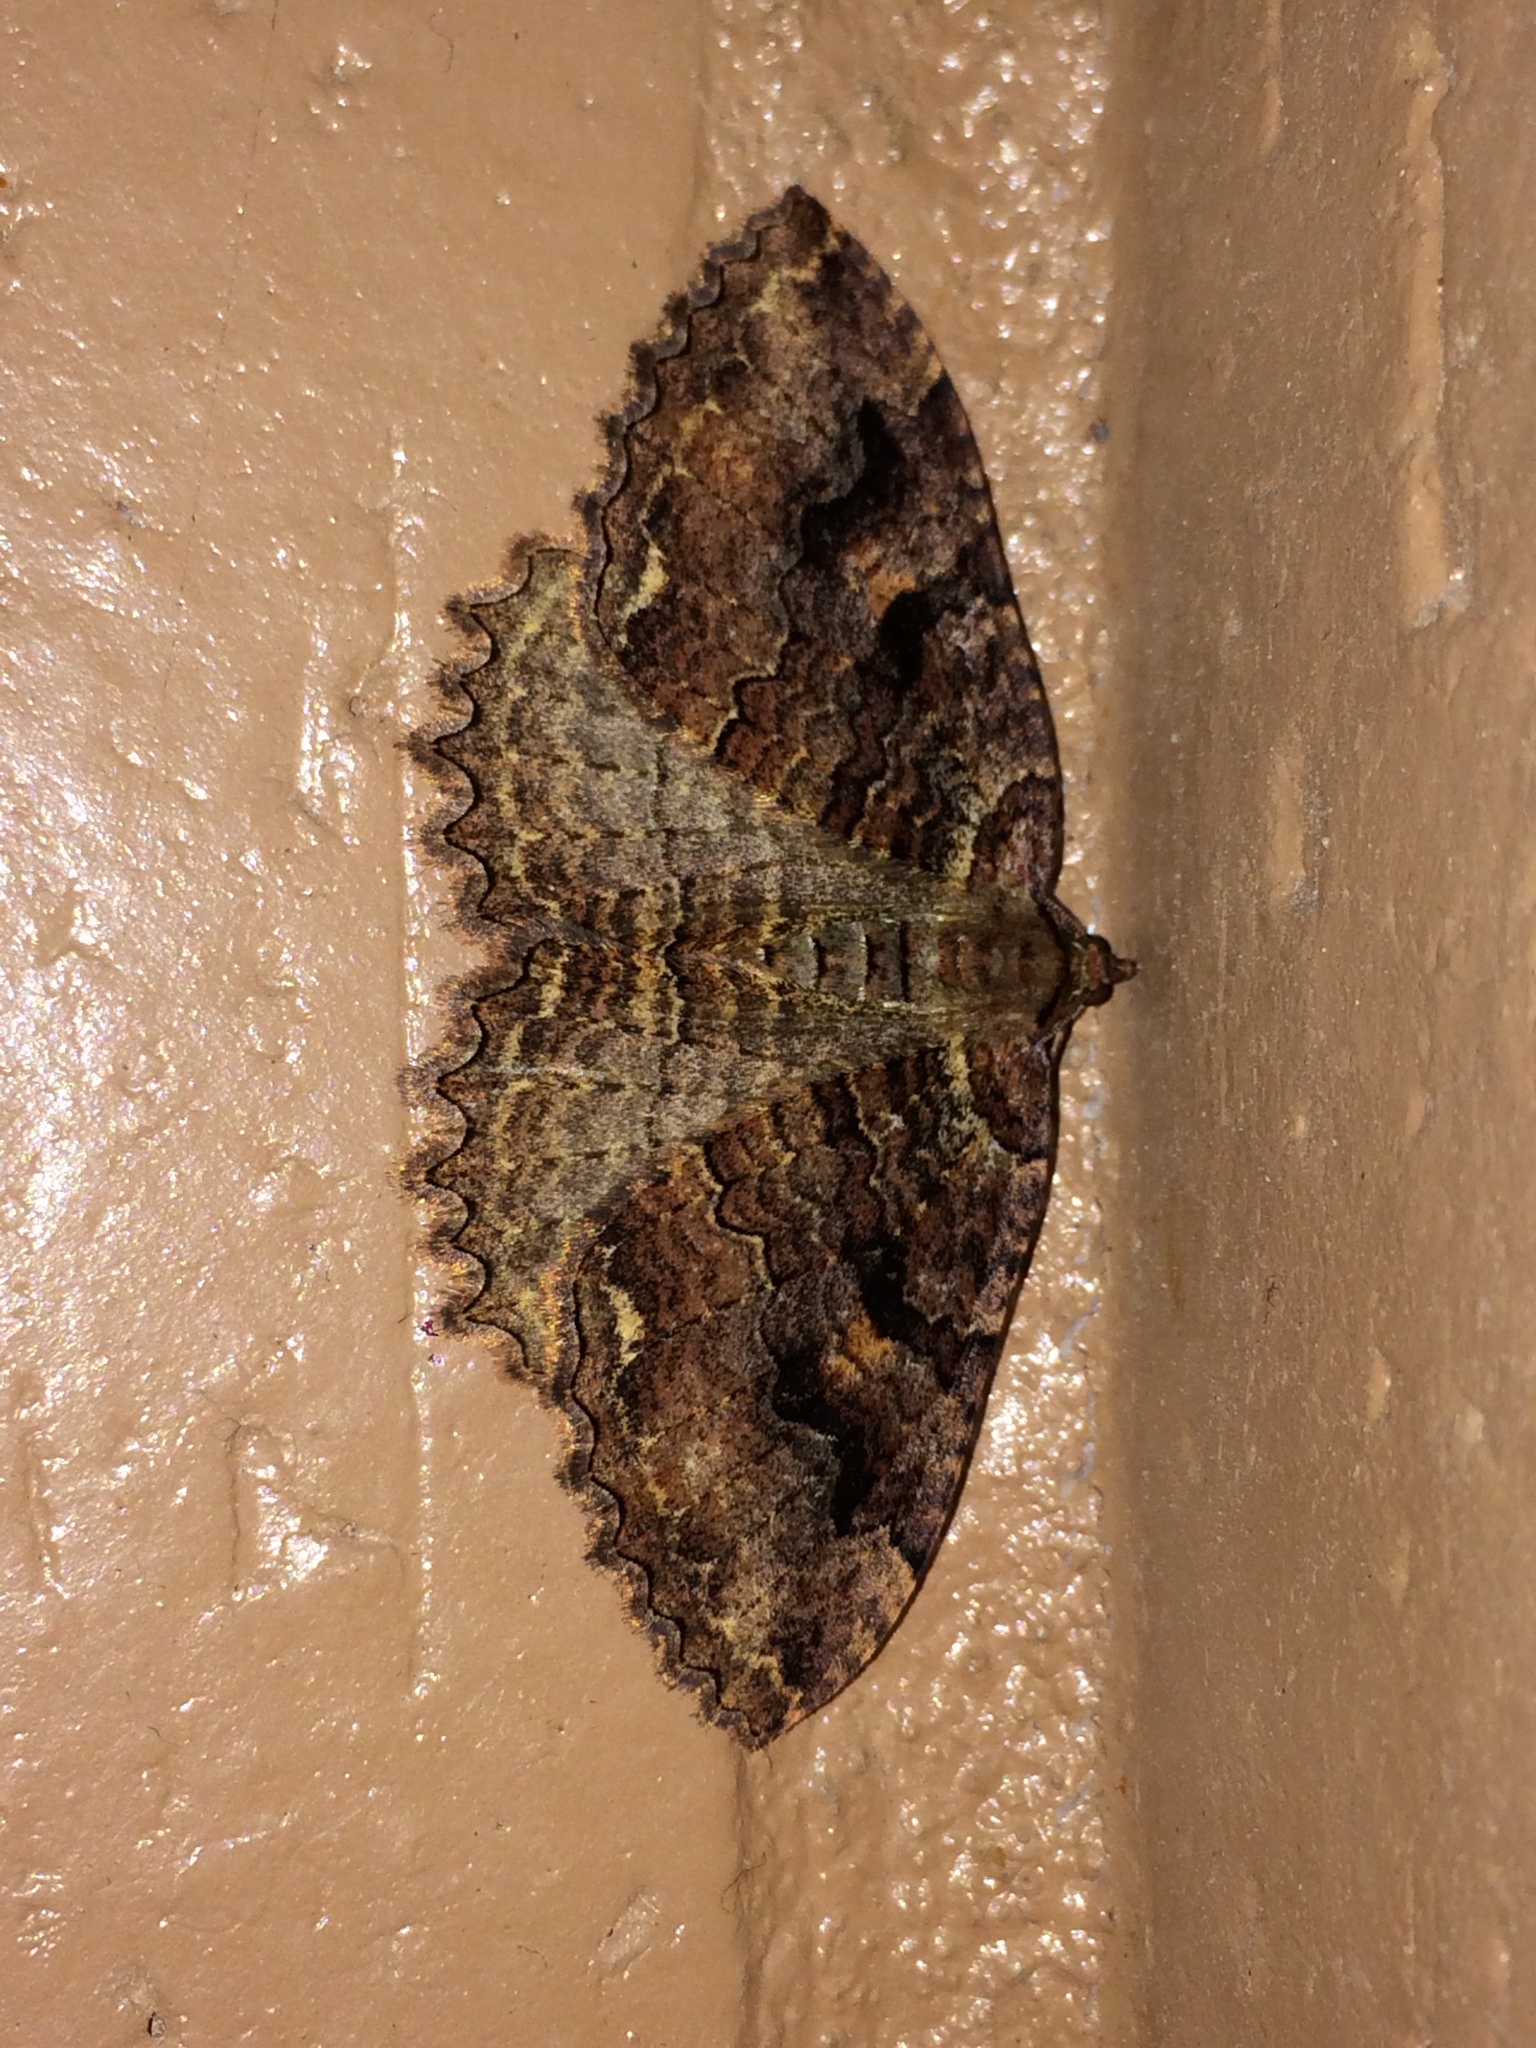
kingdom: Animalia
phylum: Arthropoda
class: Insecta
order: Lepidoptera
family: Geometridae
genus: Triphosa
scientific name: Triphosa haesitata
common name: Tissue moth
